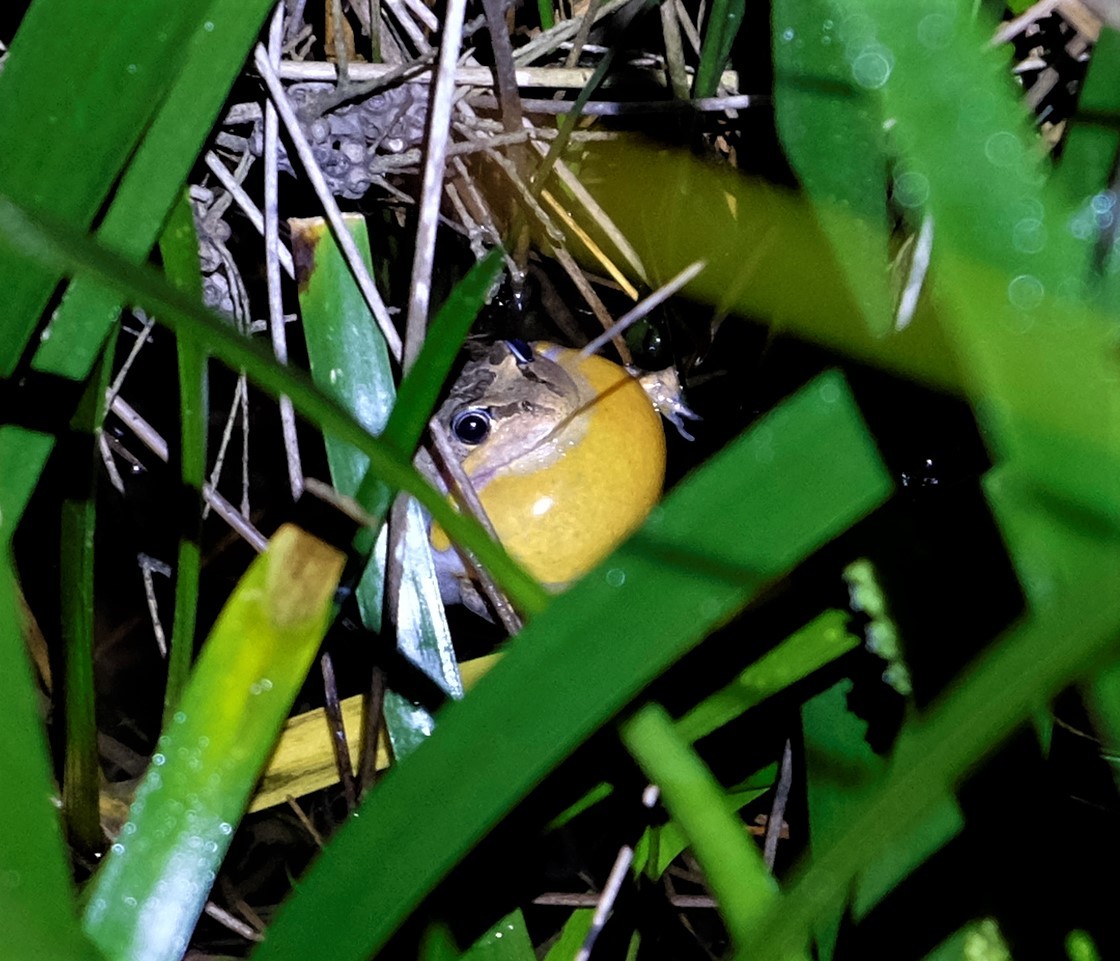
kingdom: Animalia
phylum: Chordata
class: Amphibia
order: Anura
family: Limnodynastidae
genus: Limnodynastes
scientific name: Limnodynastes dumerilii
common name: Banjo frog
